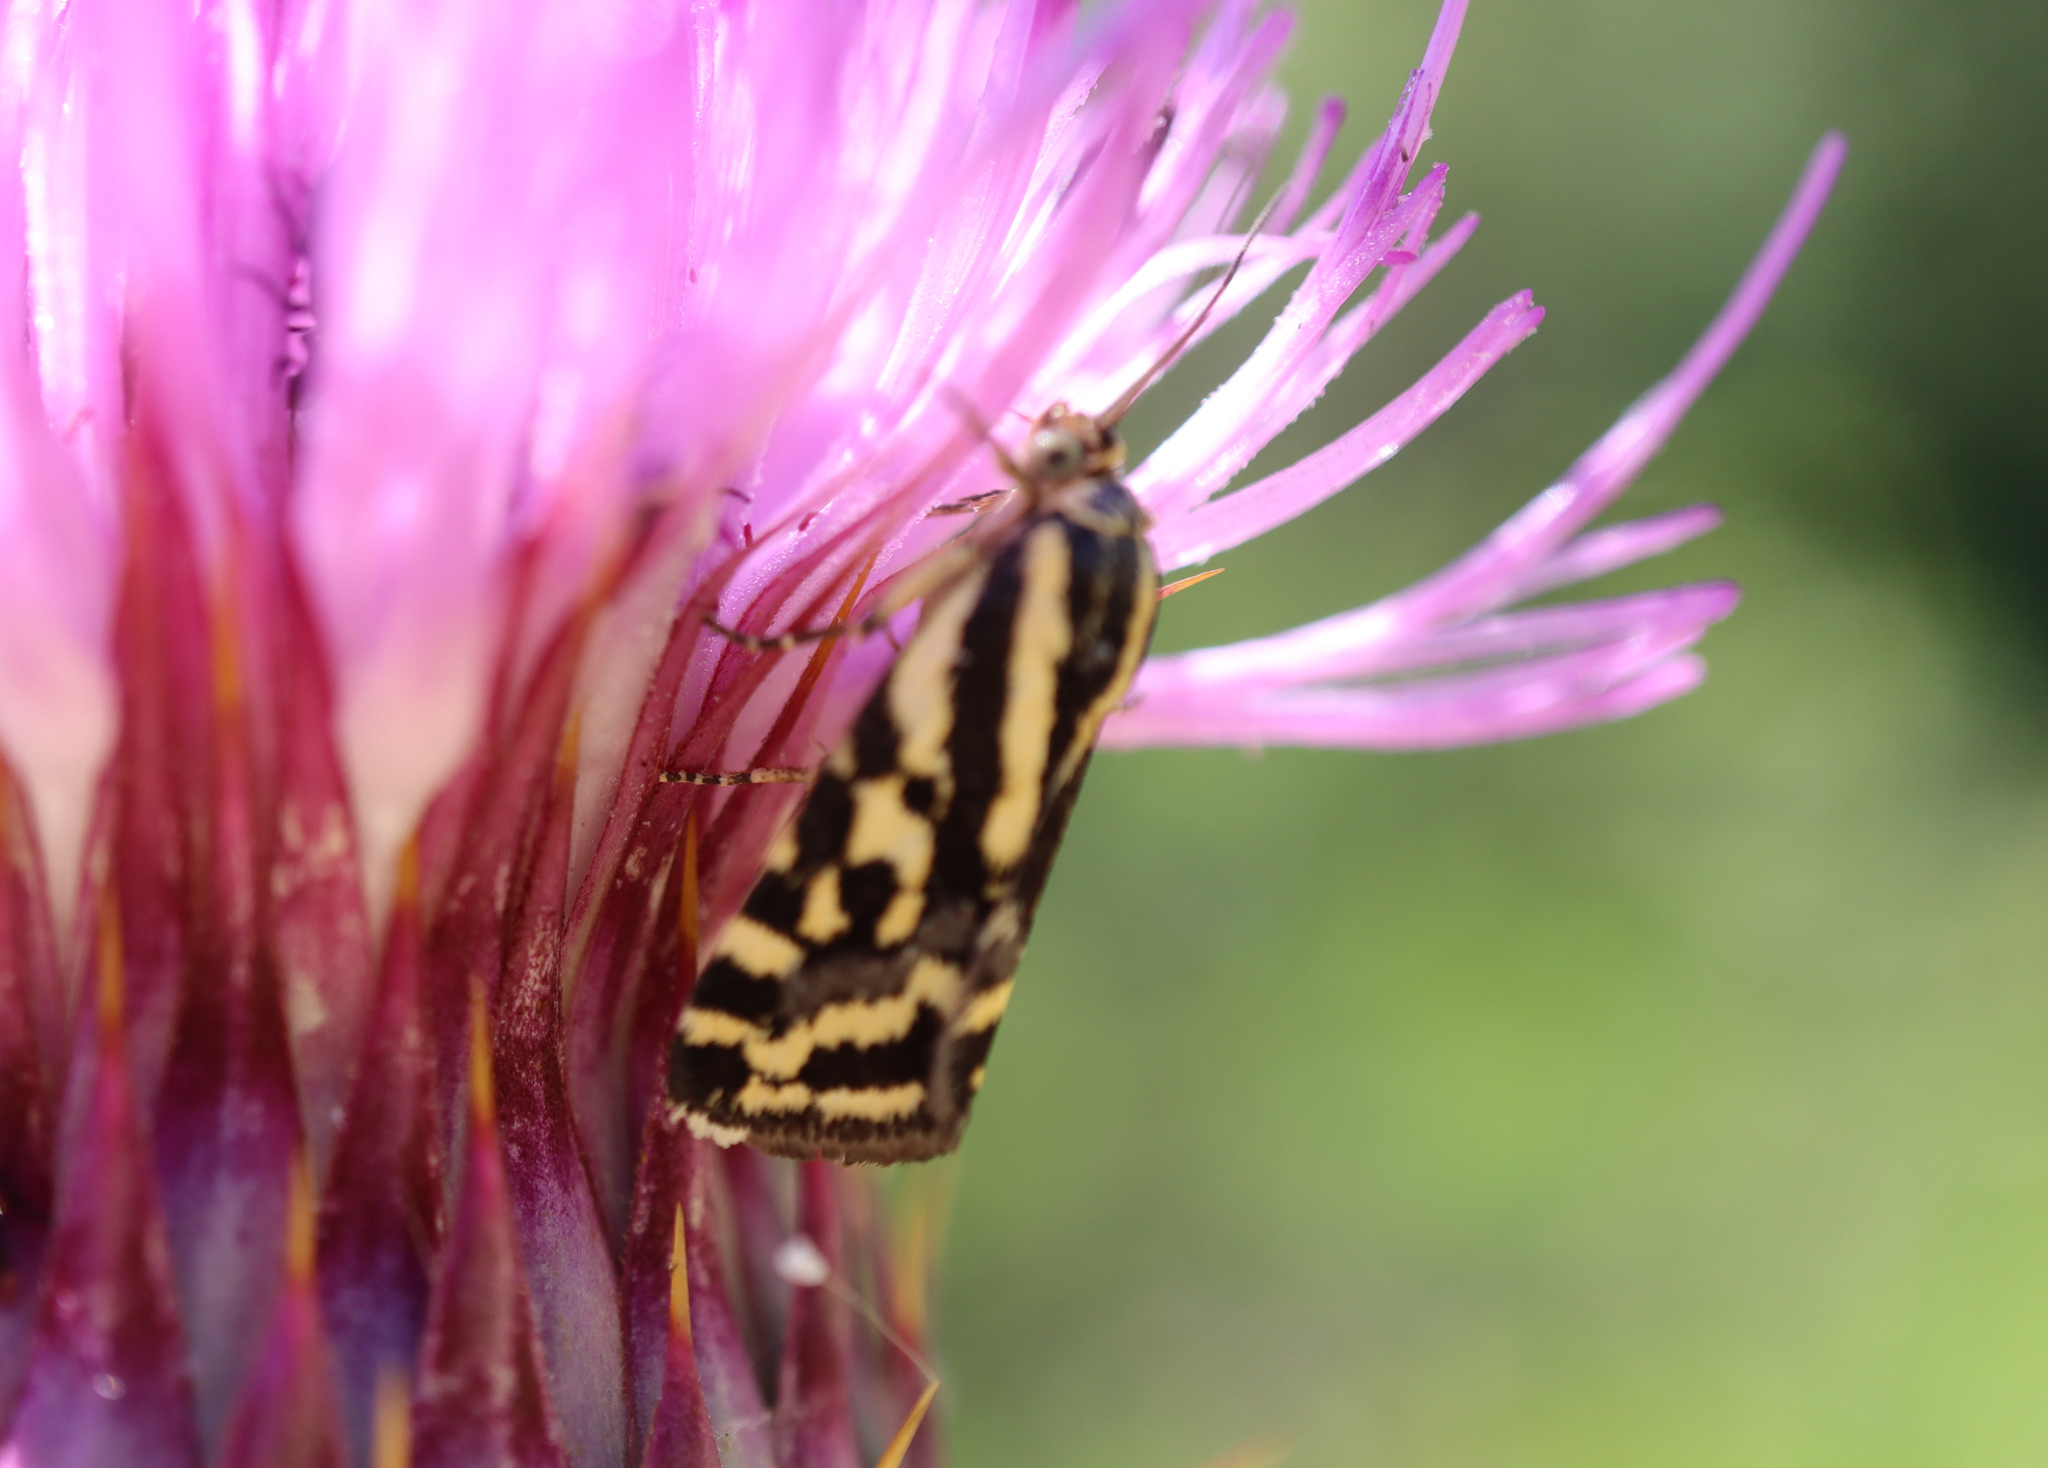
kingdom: Animalia
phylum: Arthropoda
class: Insecta
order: Lepidoptera
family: Noctuidae
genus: Acontia
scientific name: Acontia trabealis
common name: Spotted sulphur
